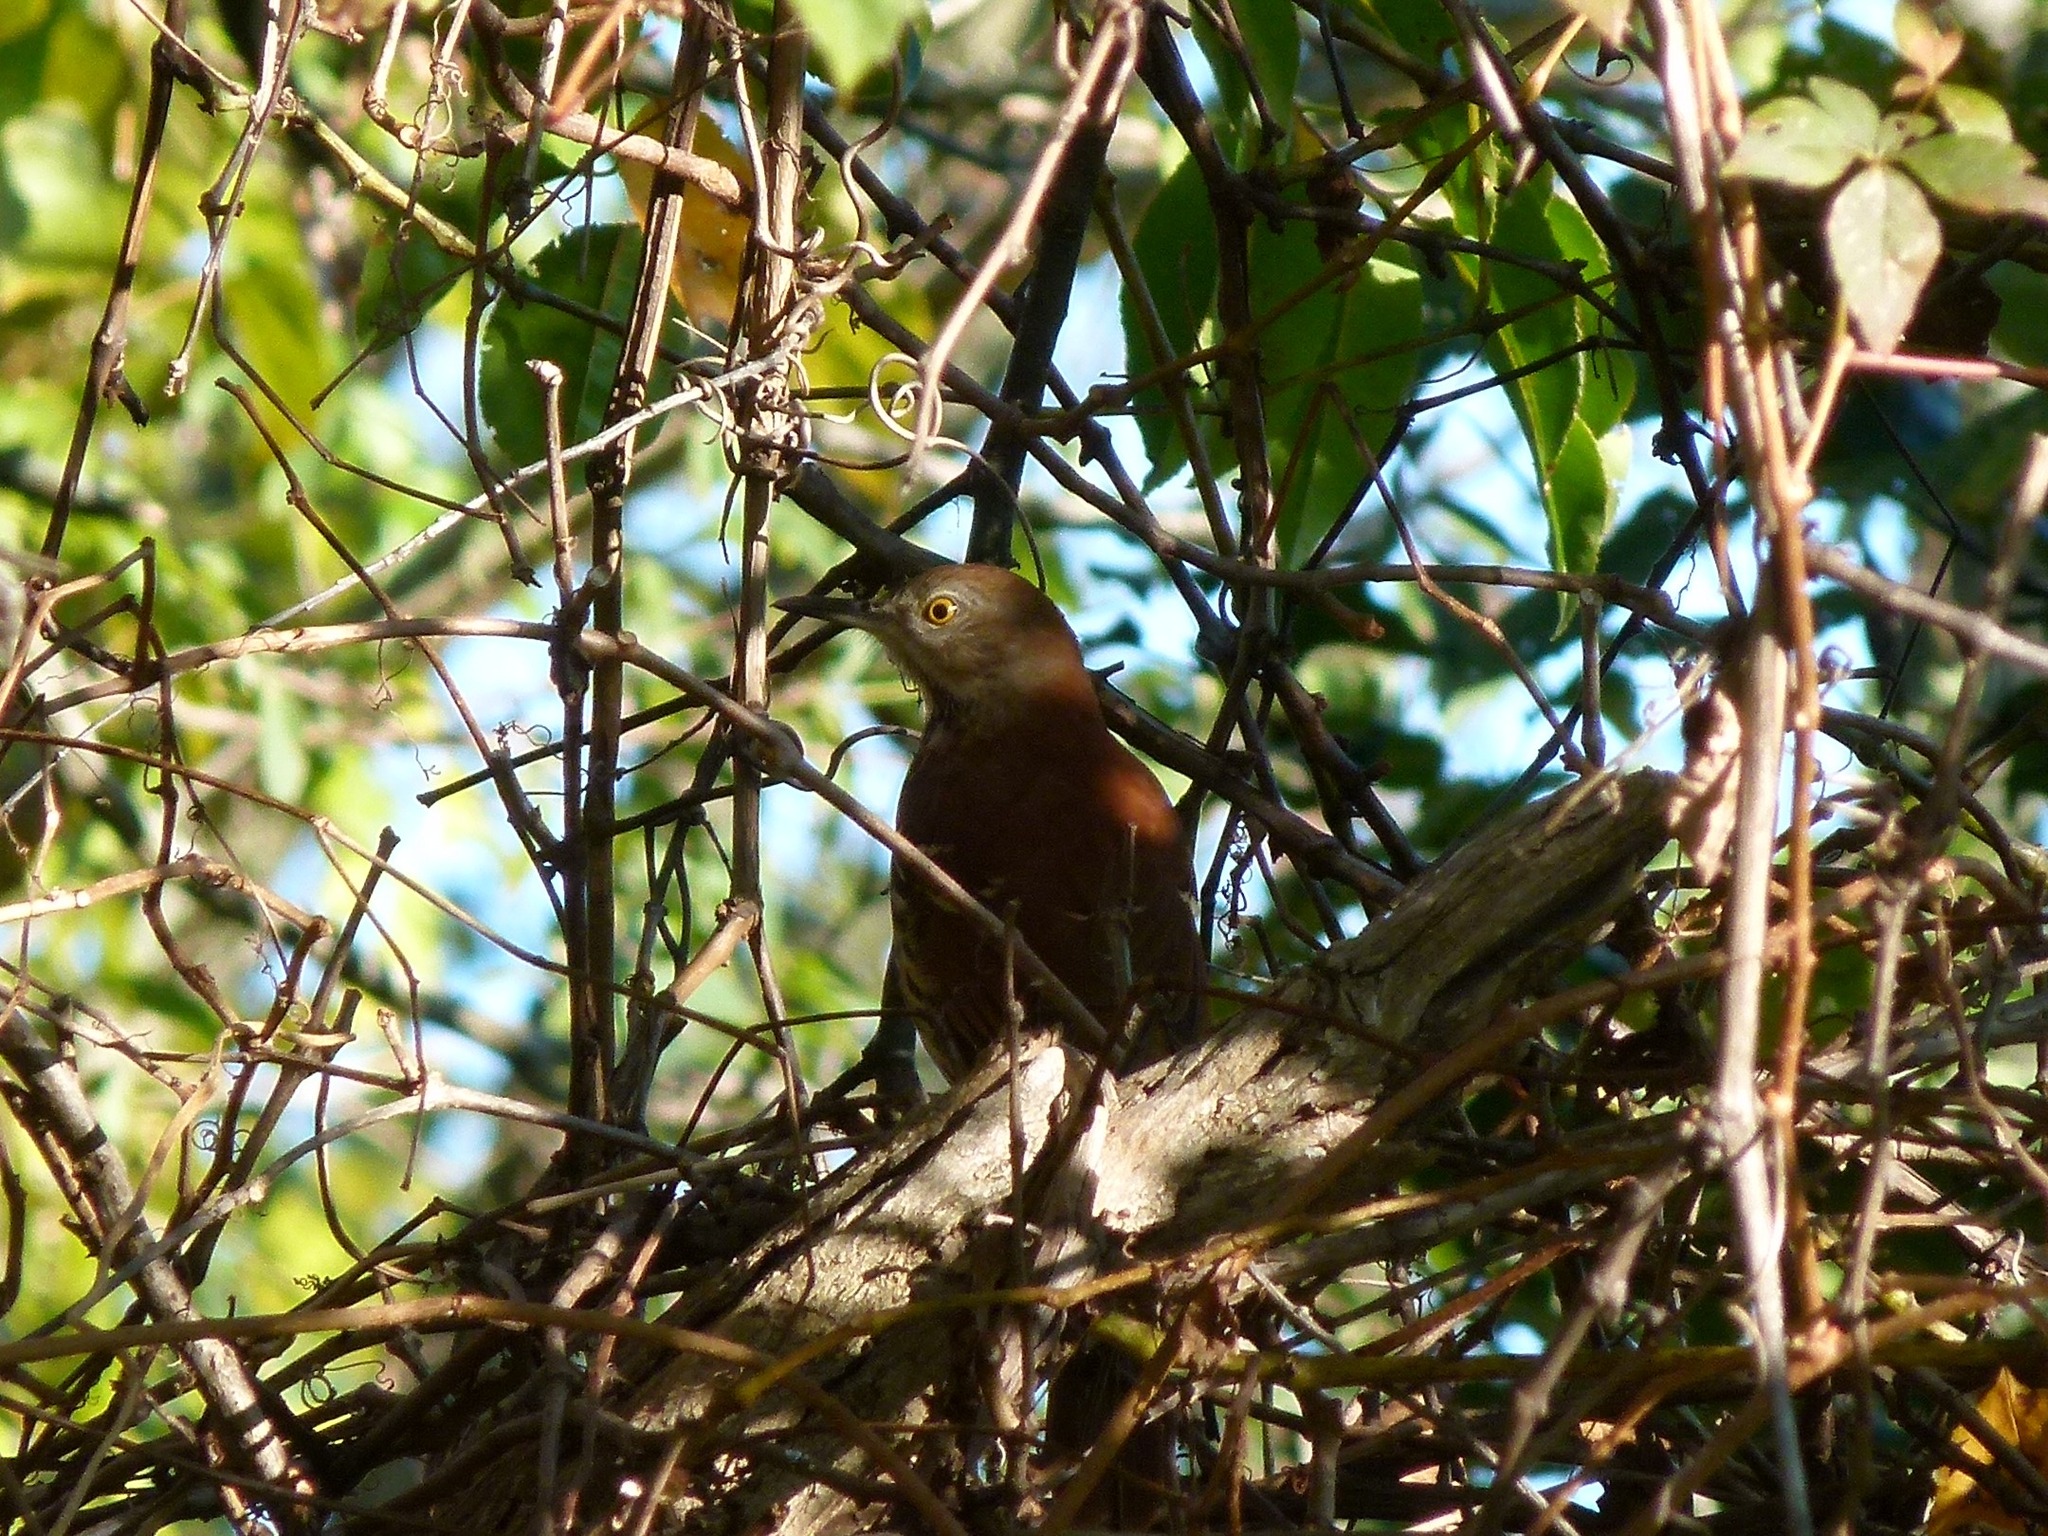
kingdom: Animalia
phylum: Chordata
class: Aves
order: Passeriformes
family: Mimidae
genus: Toxostoma
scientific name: Toxostoma rufum
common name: Brown thrasher
